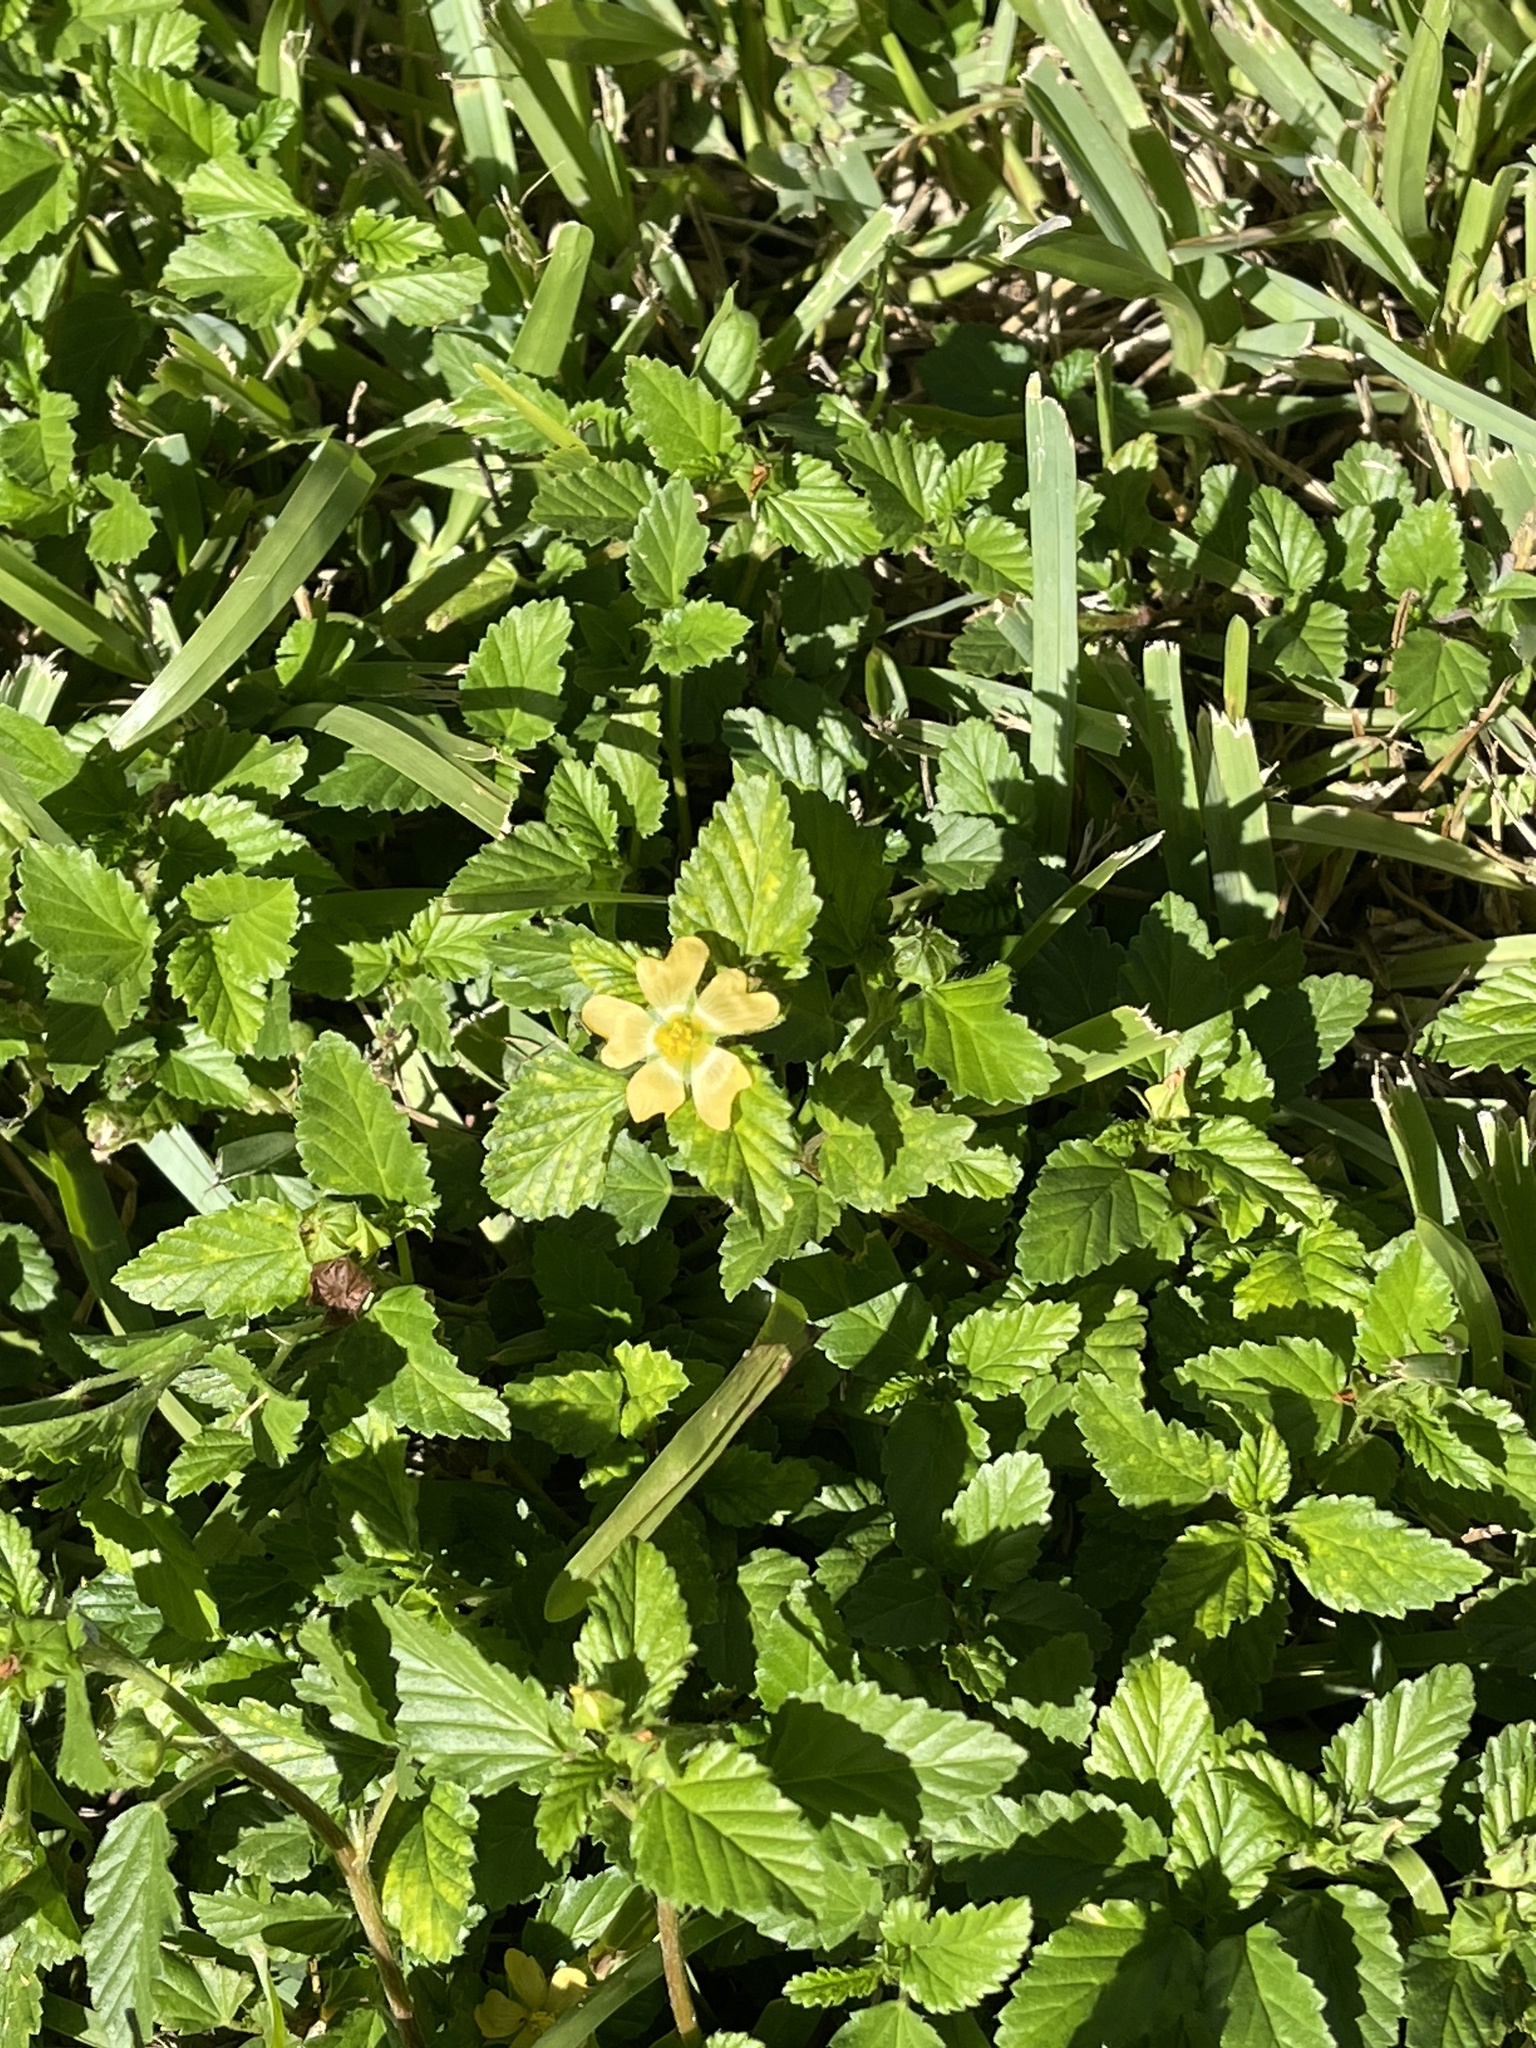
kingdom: Plantae
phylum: Tracheophyta
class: Magnoliopsida
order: Malvales
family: Malvaceae
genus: Malvastrum
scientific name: Malvastrum coromandelianum
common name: Threelobe false mallow
